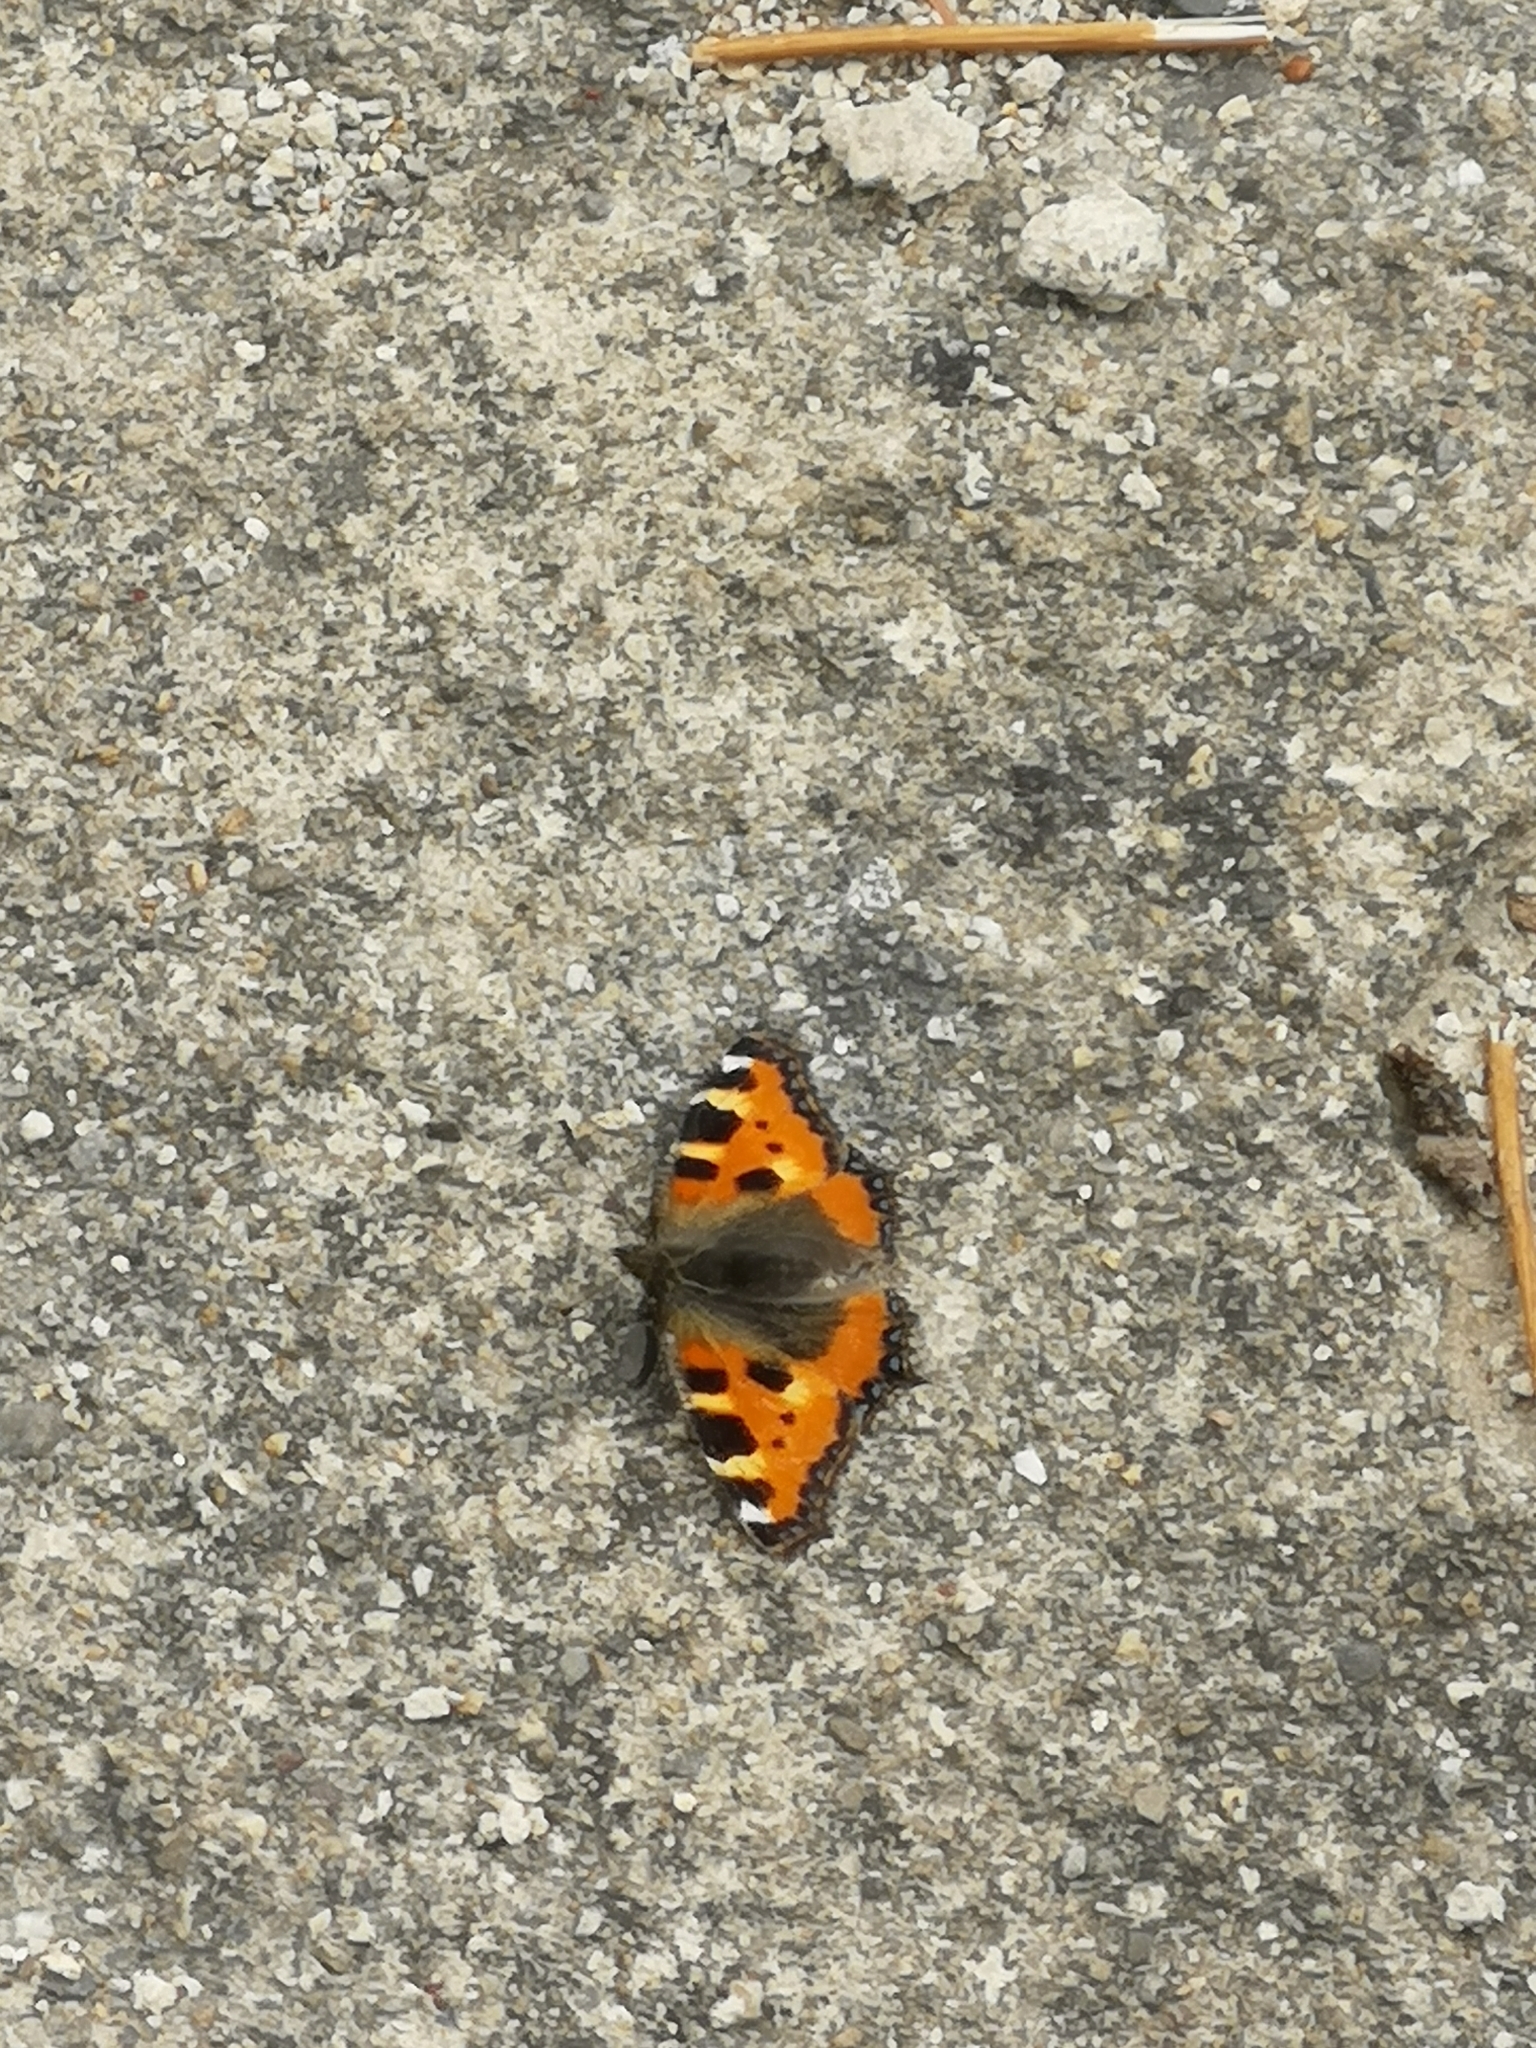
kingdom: Animalia
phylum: Arthropoda
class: Insecta
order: Lepidoptera
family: Nymphalidae
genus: Aglais
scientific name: Aglais urticae
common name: Small tortoiseshell
